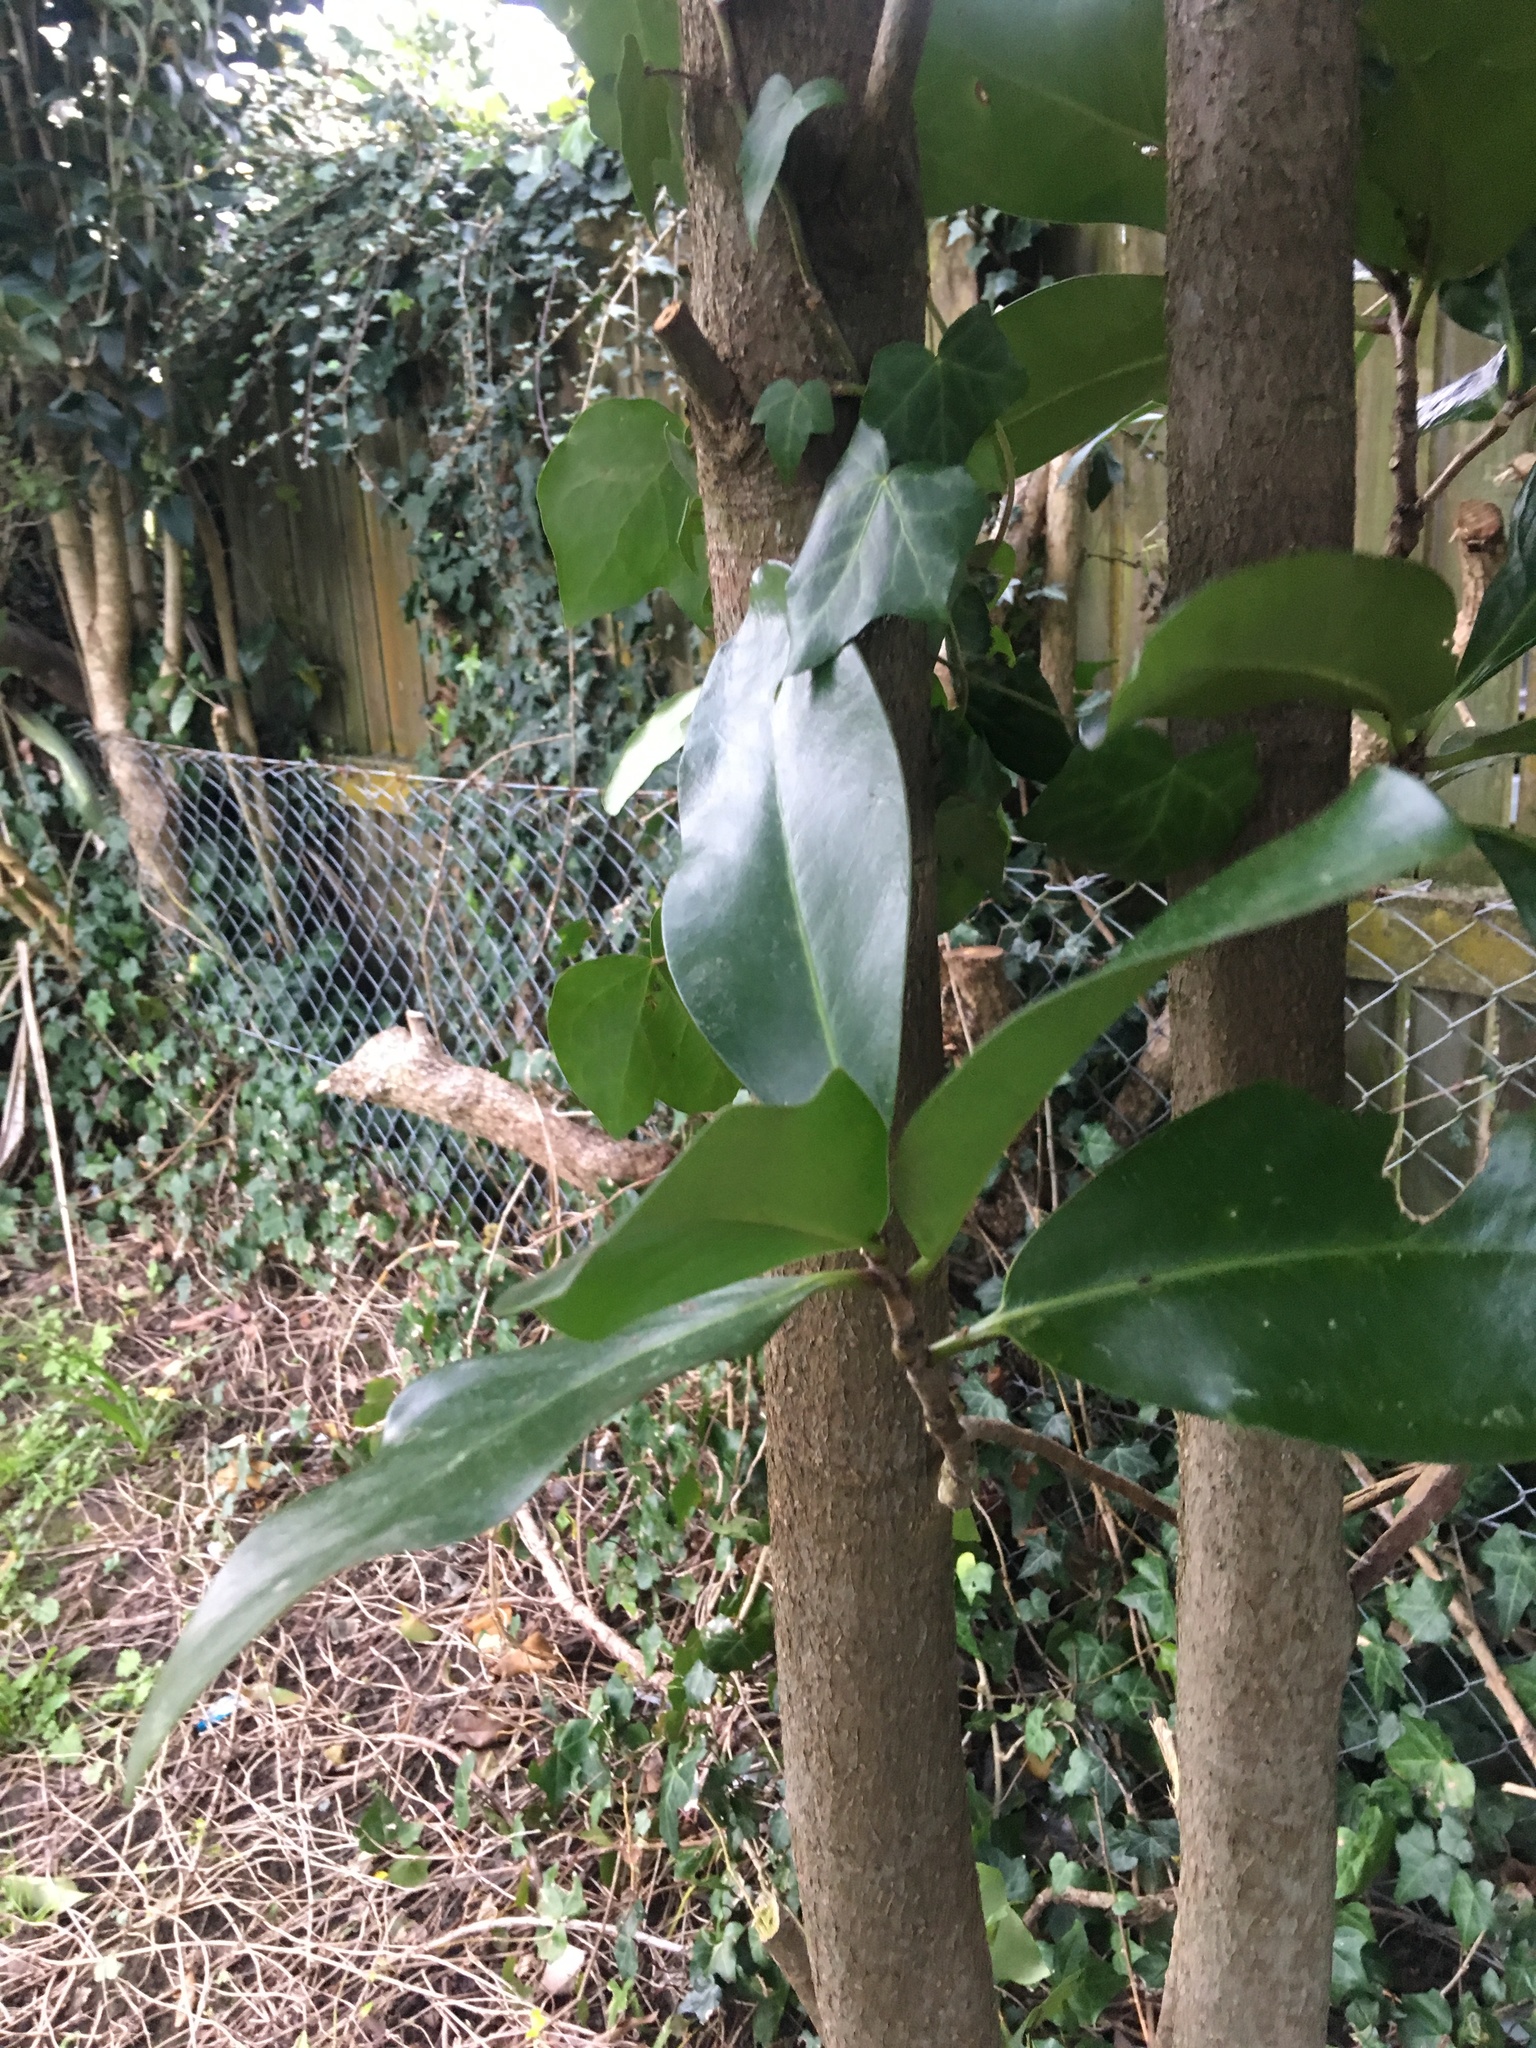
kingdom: Plantae
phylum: Tracheophyta
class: Magnoliopsida
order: Cucurbitales
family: Corynocarpaceae
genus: Corynocarpus
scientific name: Corynocarpus laevigatus
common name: New zealand laurel
